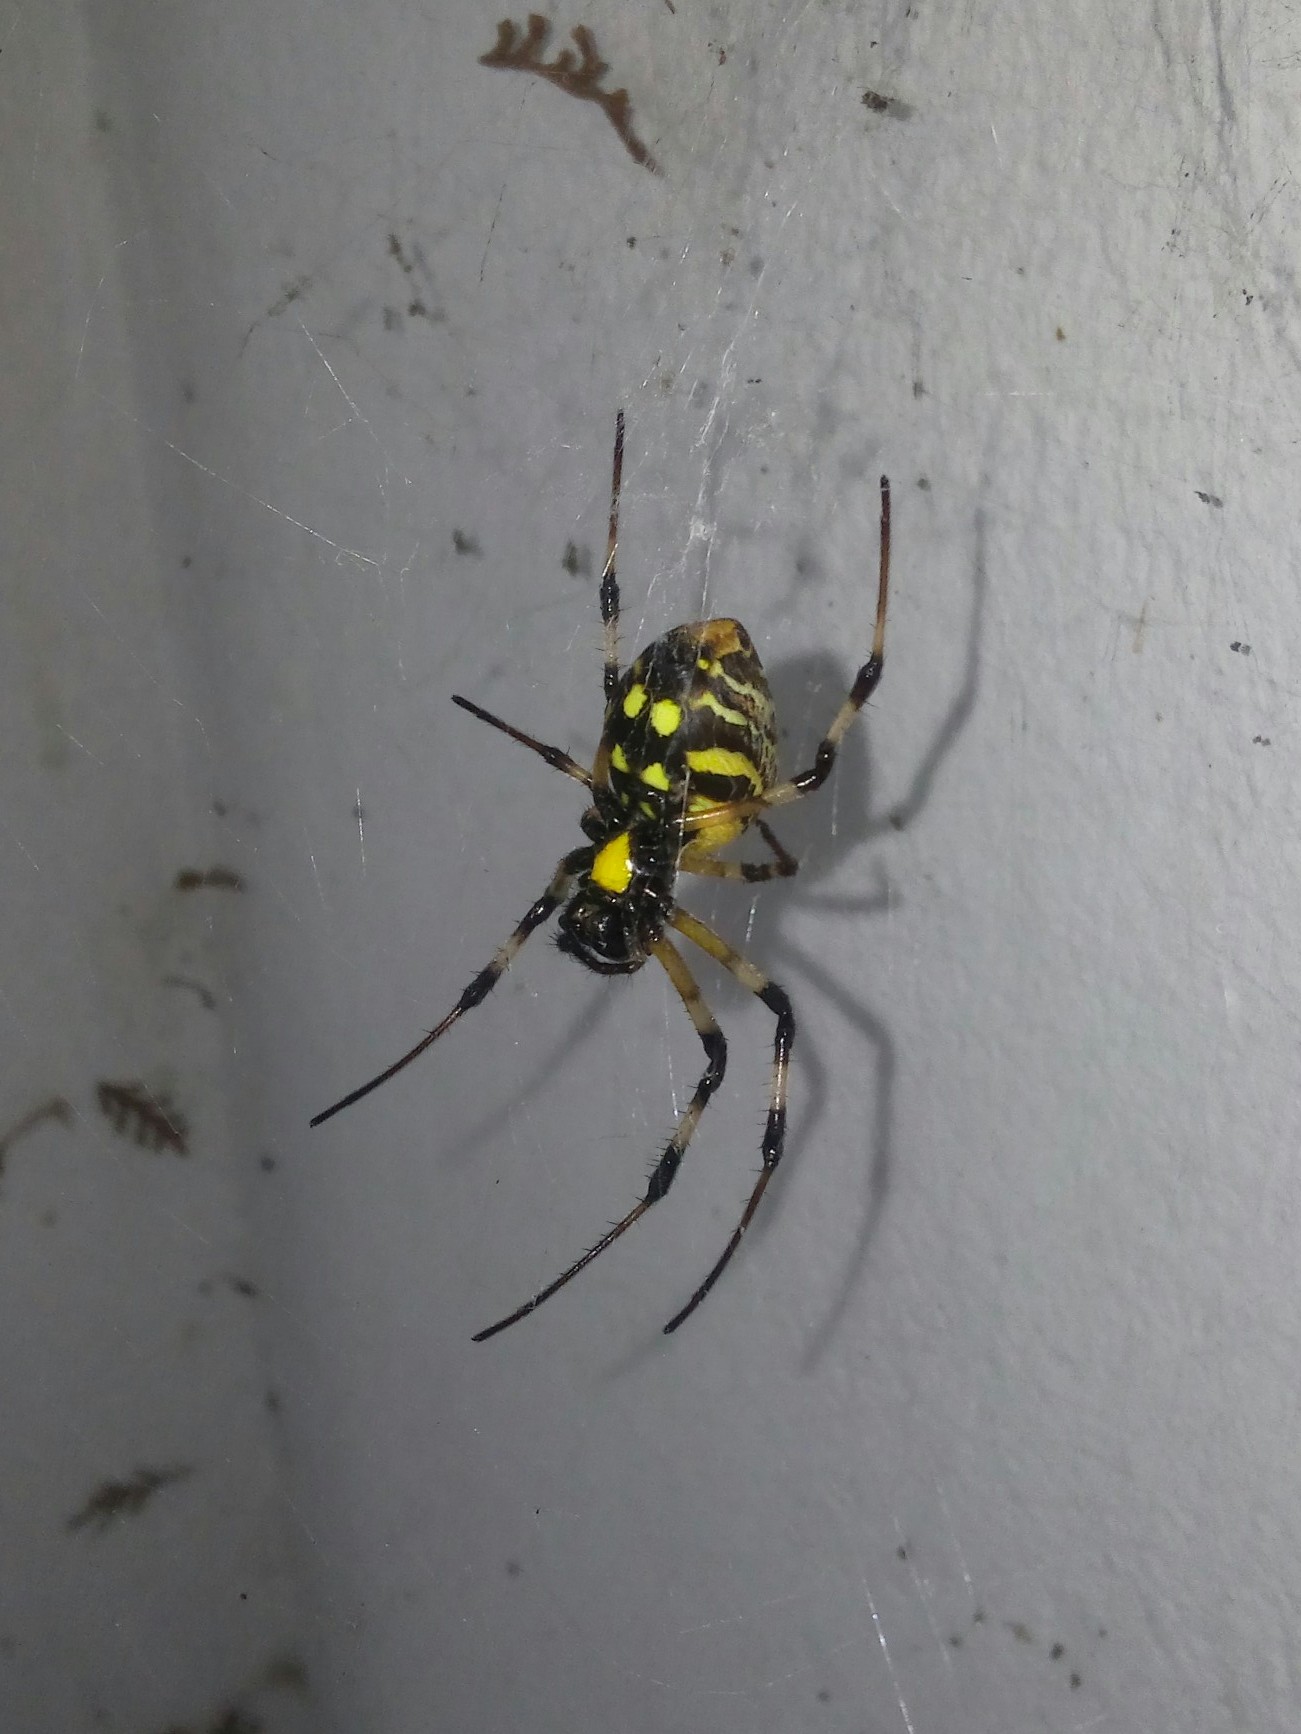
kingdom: Animalia
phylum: Arthropoda
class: Arachnida
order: Araneae
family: Araneidae
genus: Nephilingis
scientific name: Nephilingis cruentata
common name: African hermit spider
